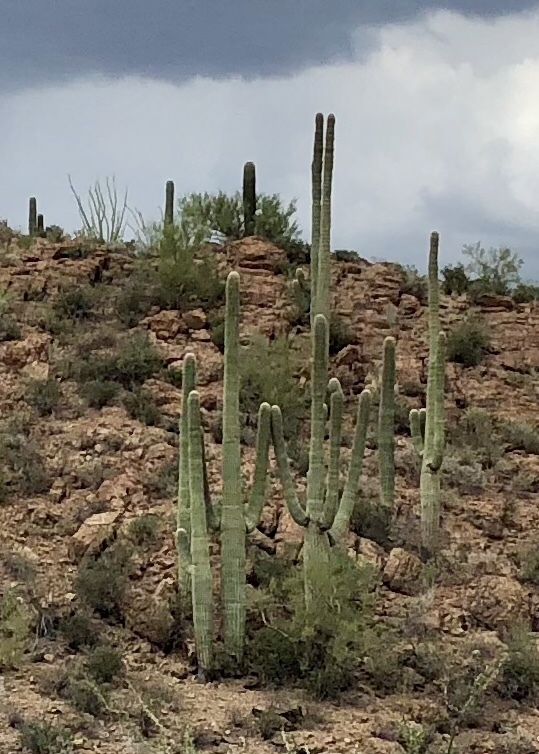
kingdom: Plantae
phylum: Tracheophyta
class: Magnoliopsida
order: Caryophyllales
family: Cactaceae
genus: Carnegiea
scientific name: Carnegiea gigantea
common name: Saguaro
